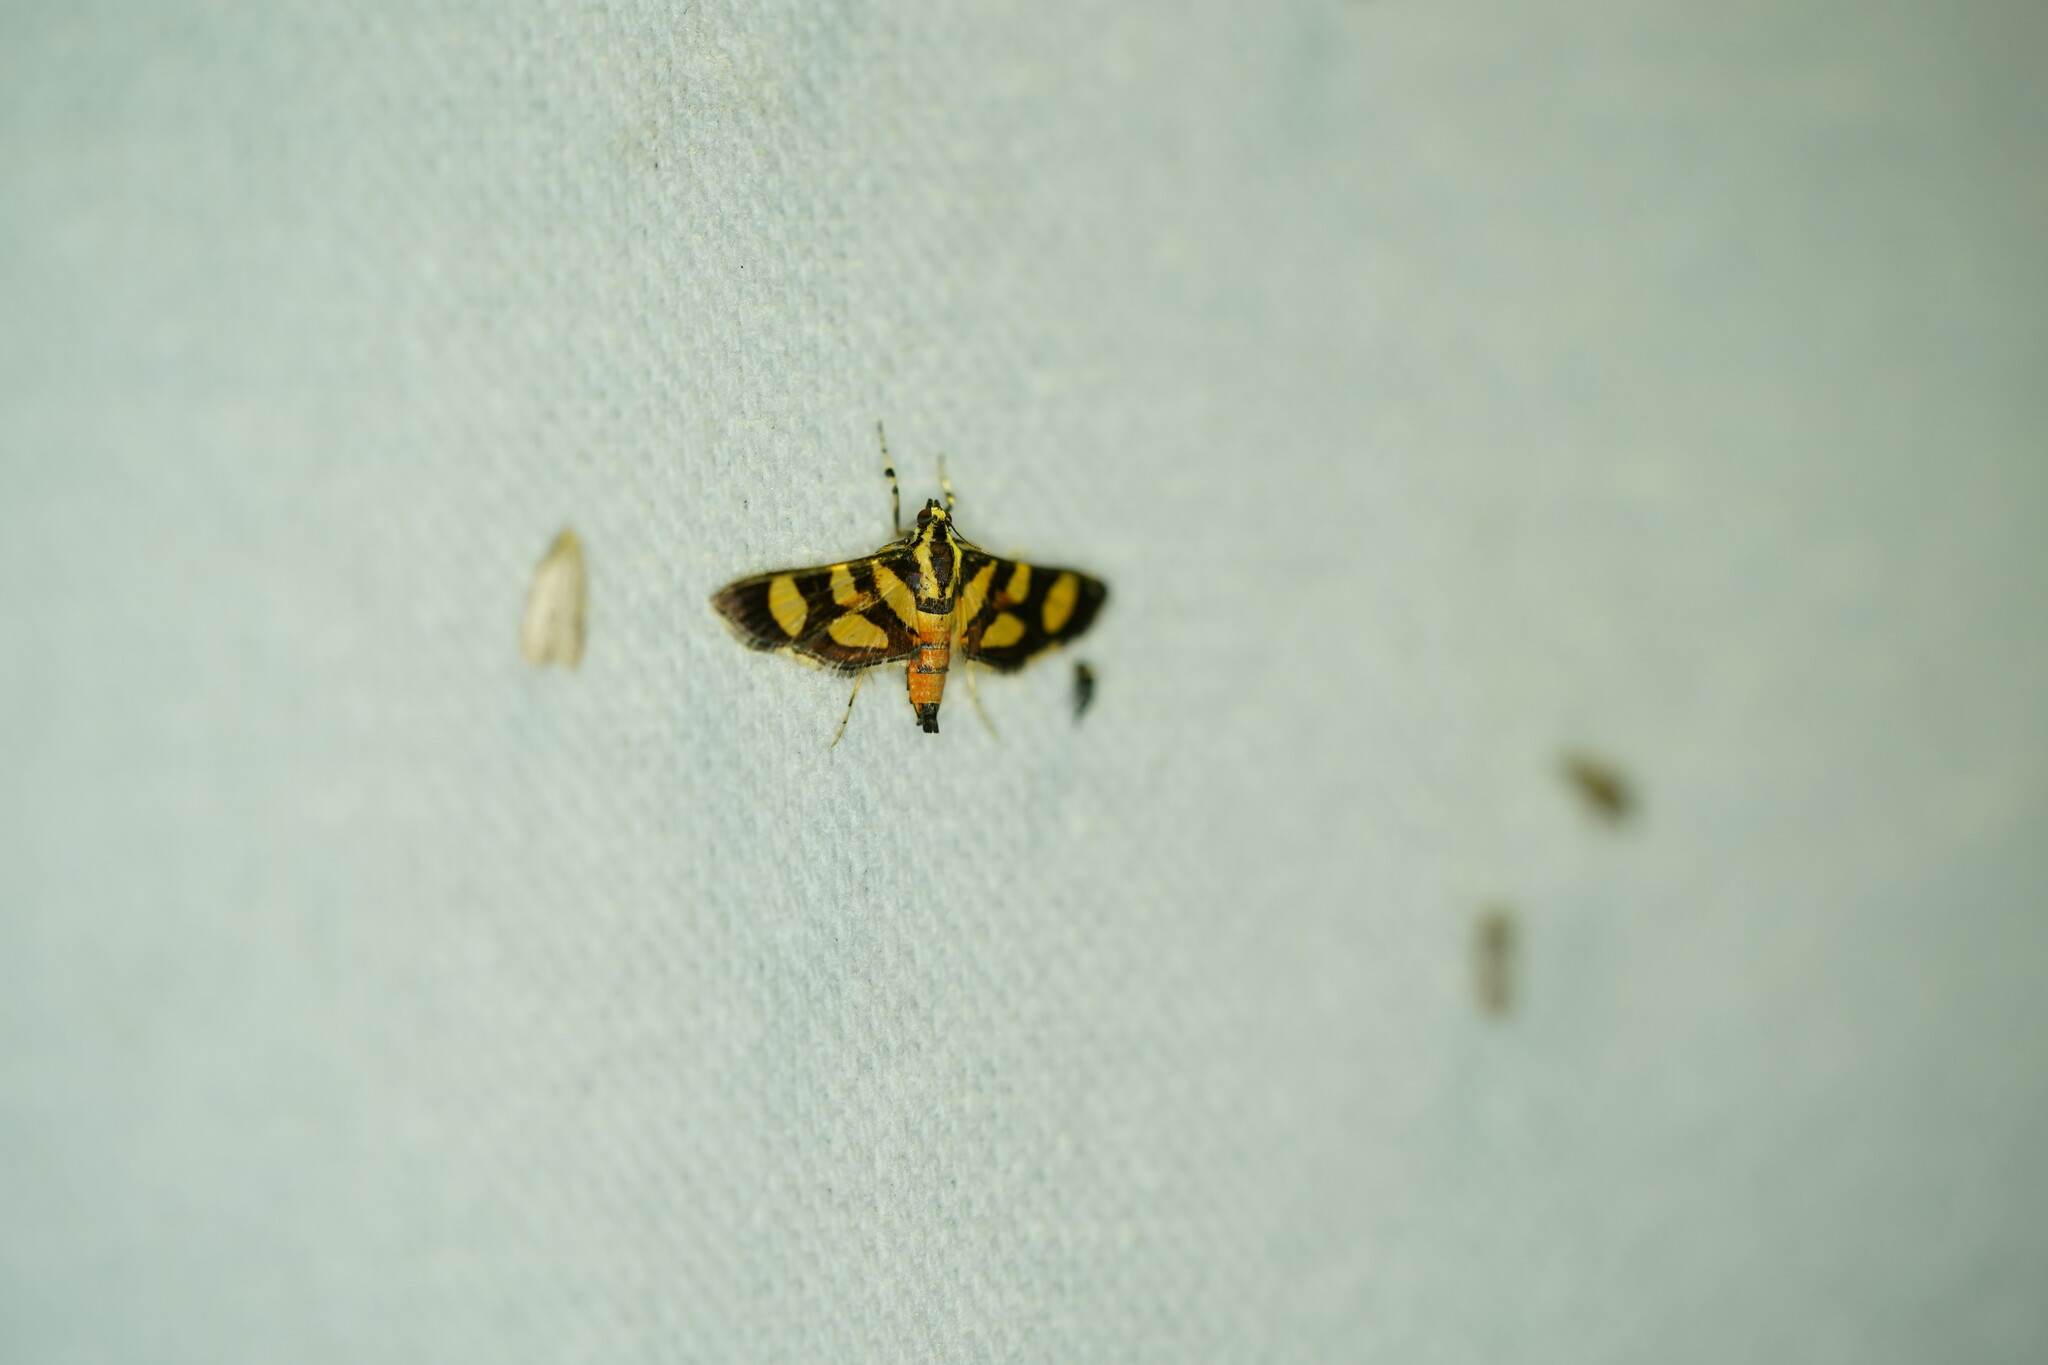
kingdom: Animalia
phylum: Arthropoda
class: Insecta
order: Lepidoptera
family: Crambidae
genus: Syngamia
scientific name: Syngamia florella
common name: Orange-spotted flower moth
